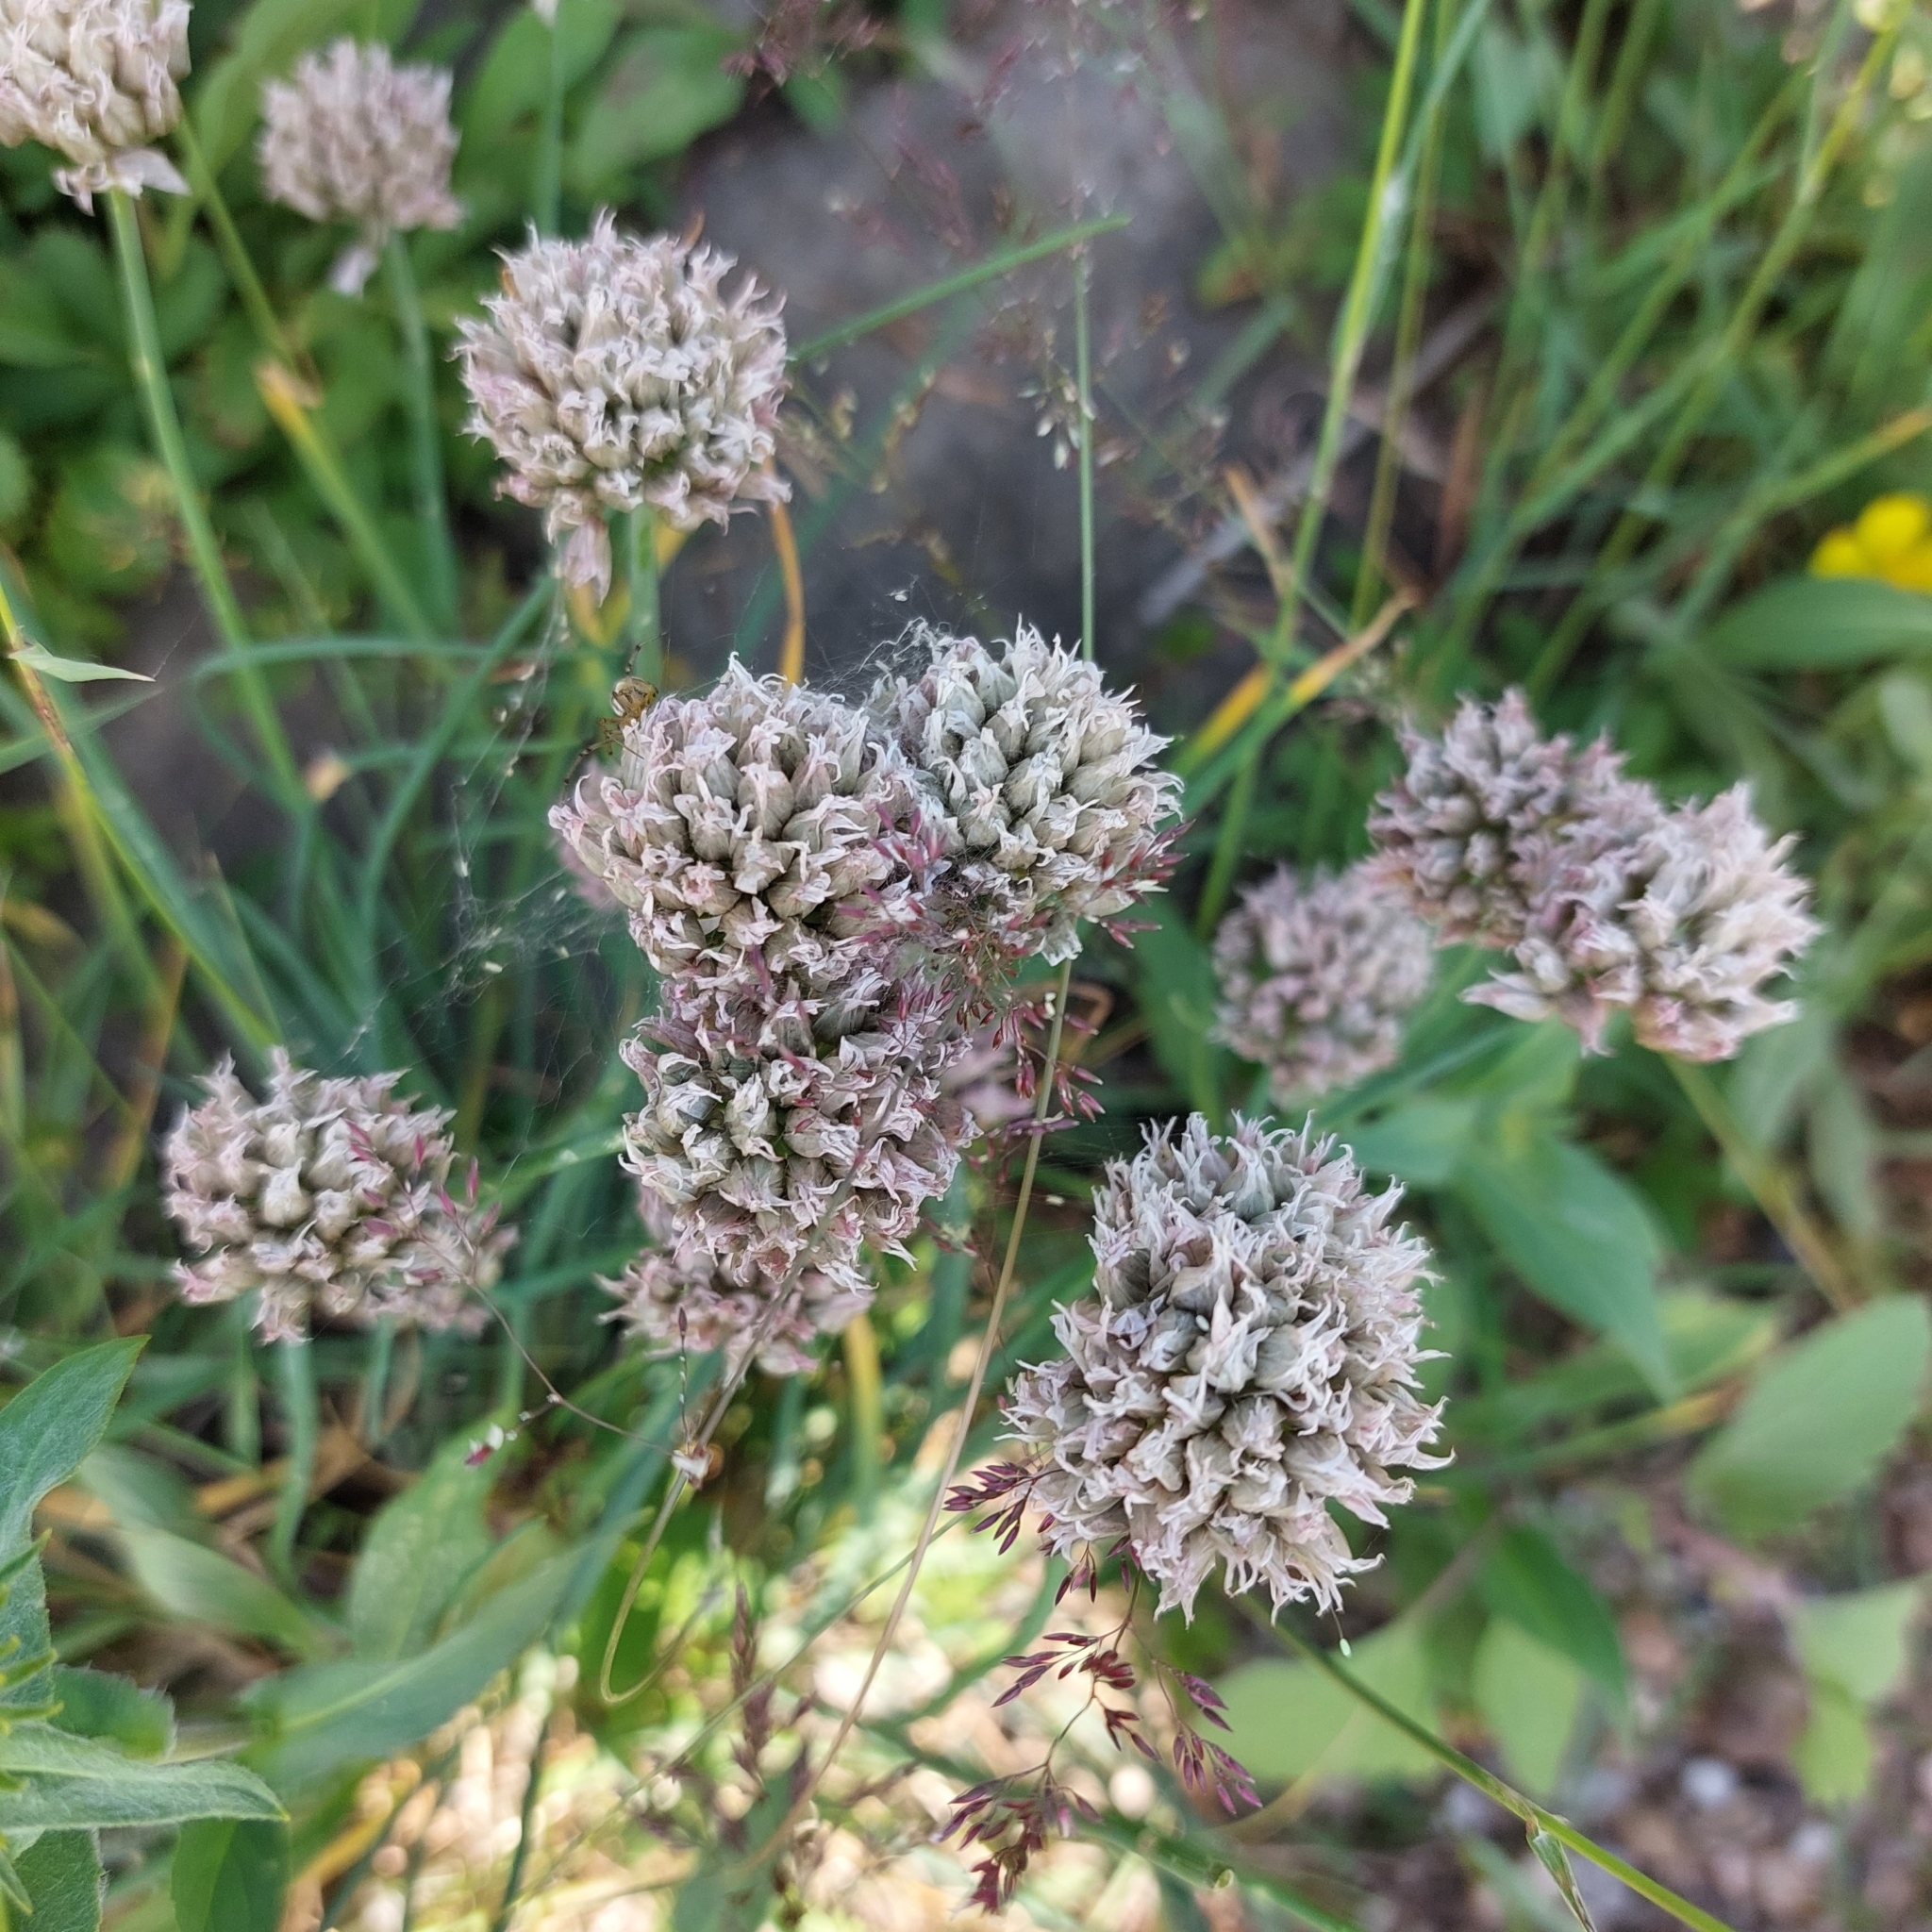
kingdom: Plantae
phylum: Tracheophyta
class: Liliopsida
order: Asparagales
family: Amaryllidaceae
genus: Allium
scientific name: Allium schoenoprasum
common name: Chives
